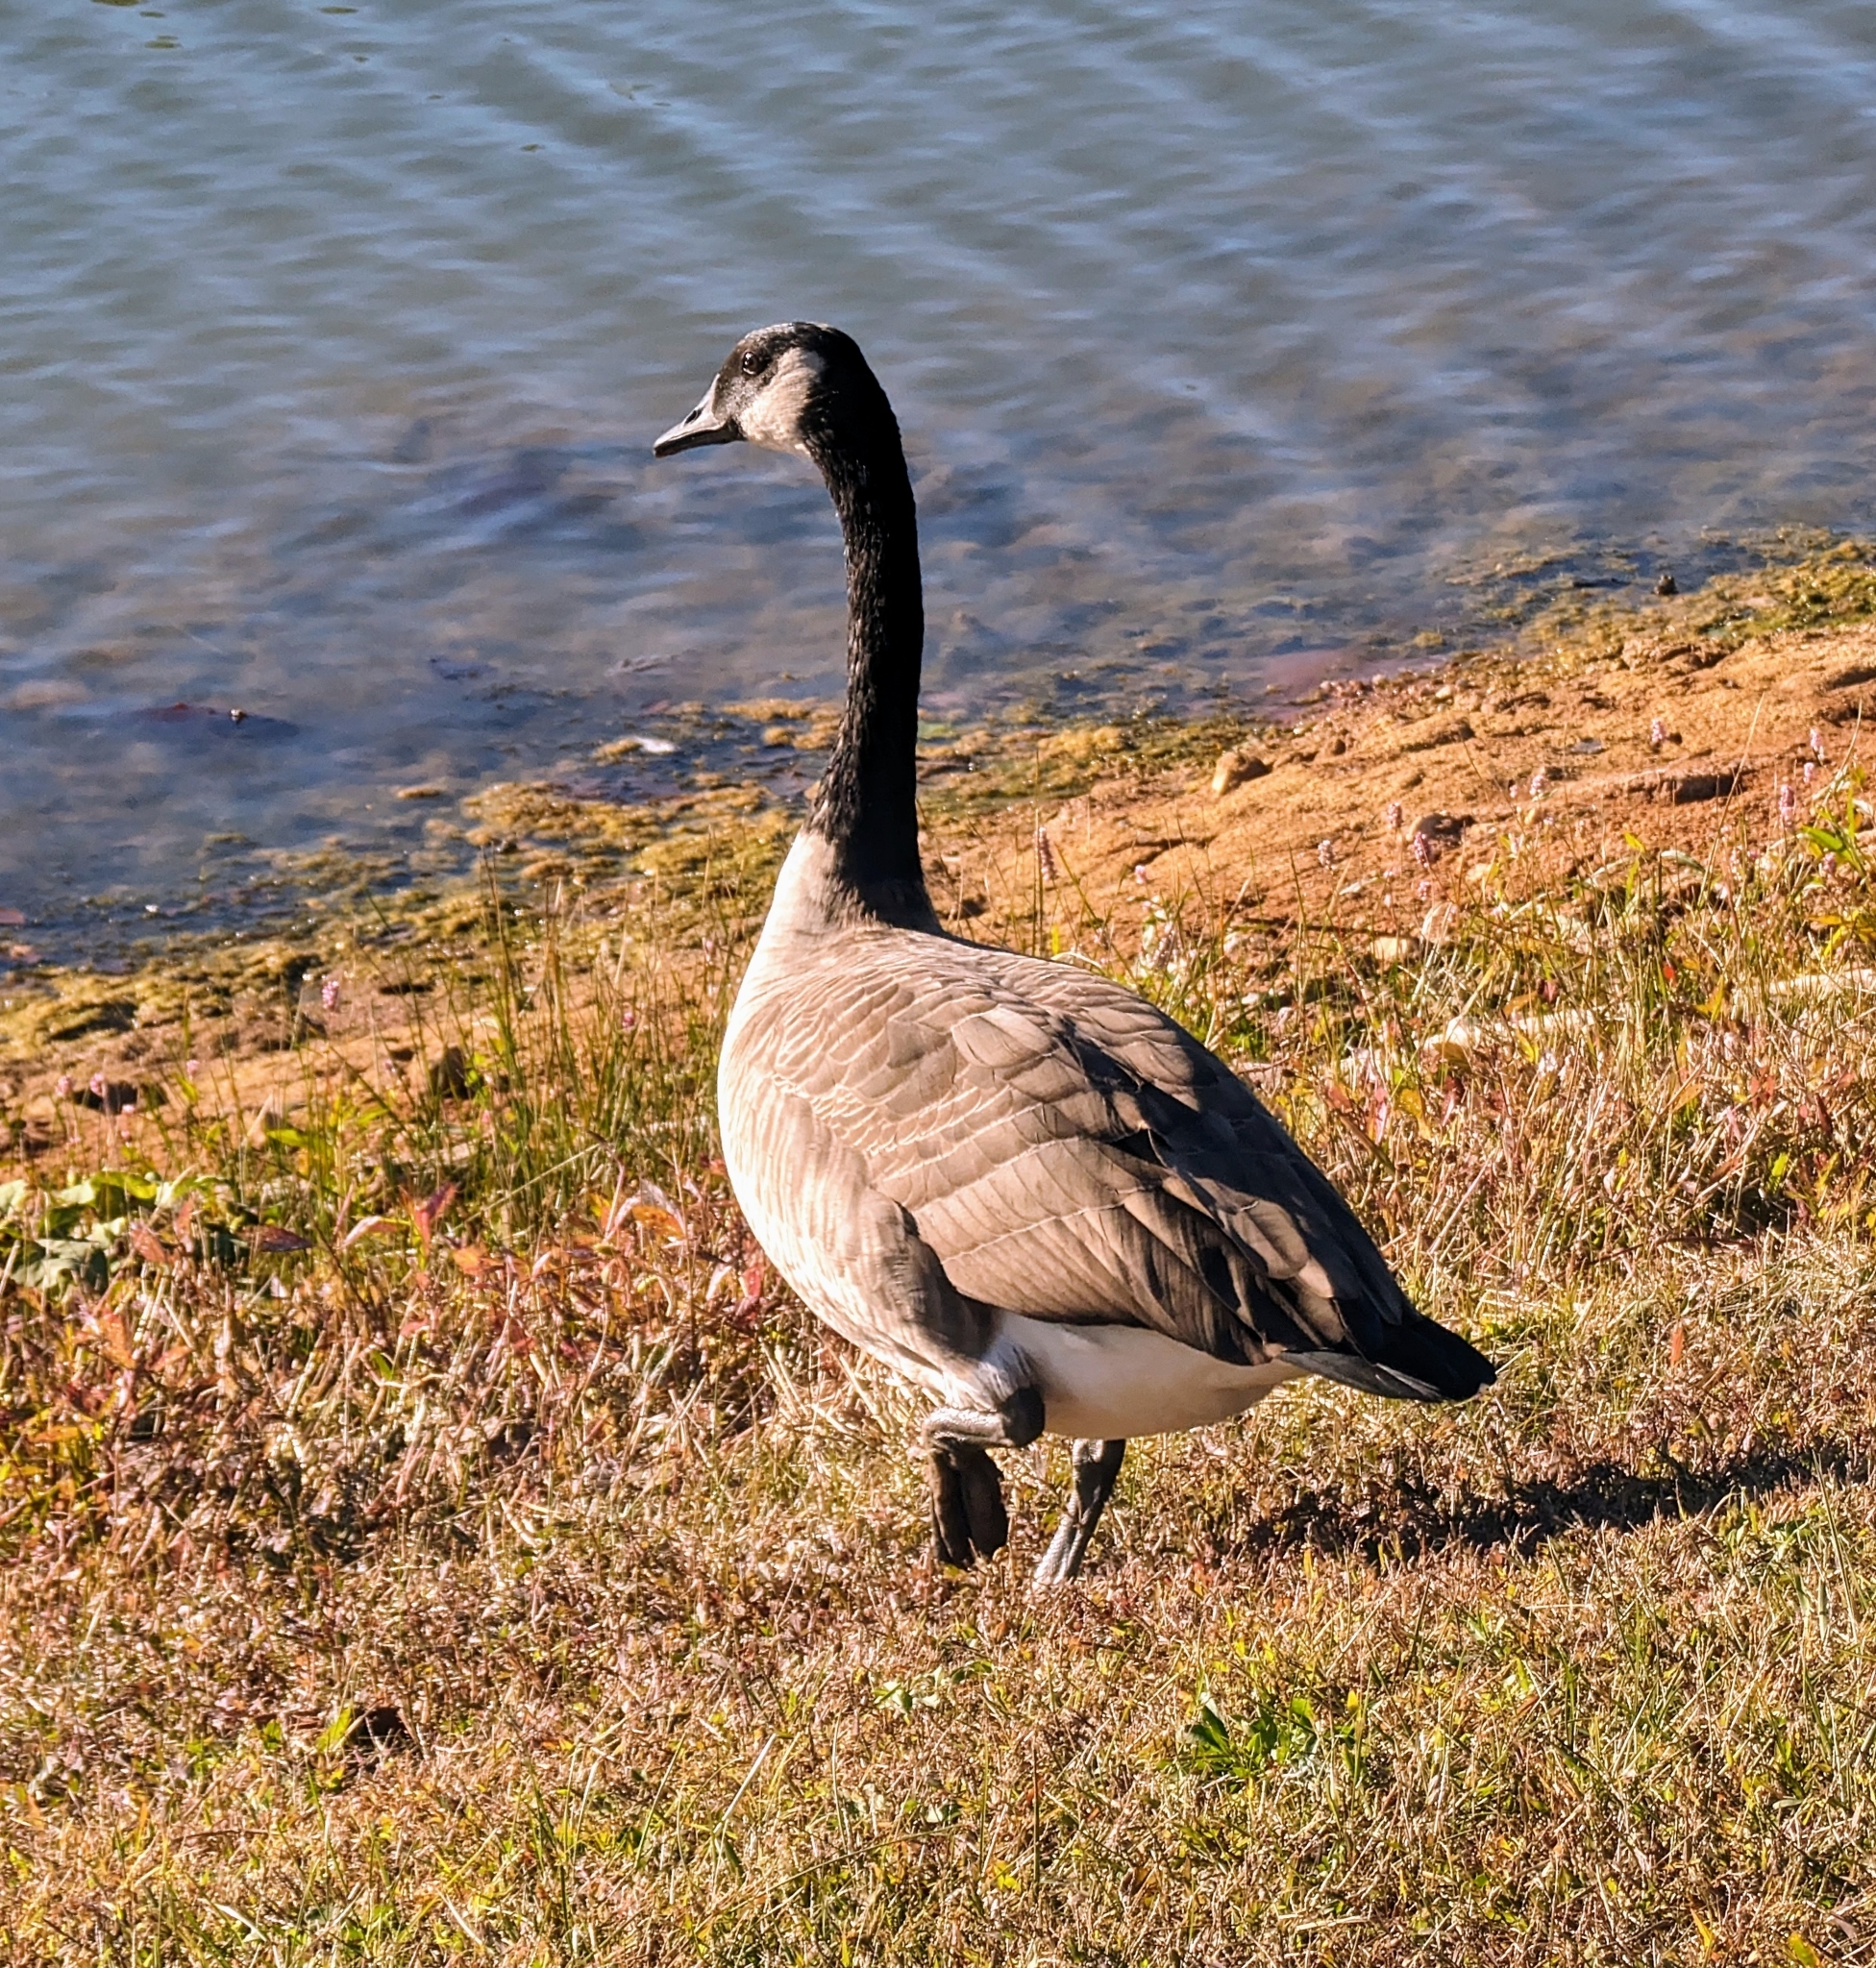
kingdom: Animalia
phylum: Chordata
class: Aves
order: Anseriformes
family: Anatidae
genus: Branta
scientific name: Branta canadensis
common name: Canada goose
